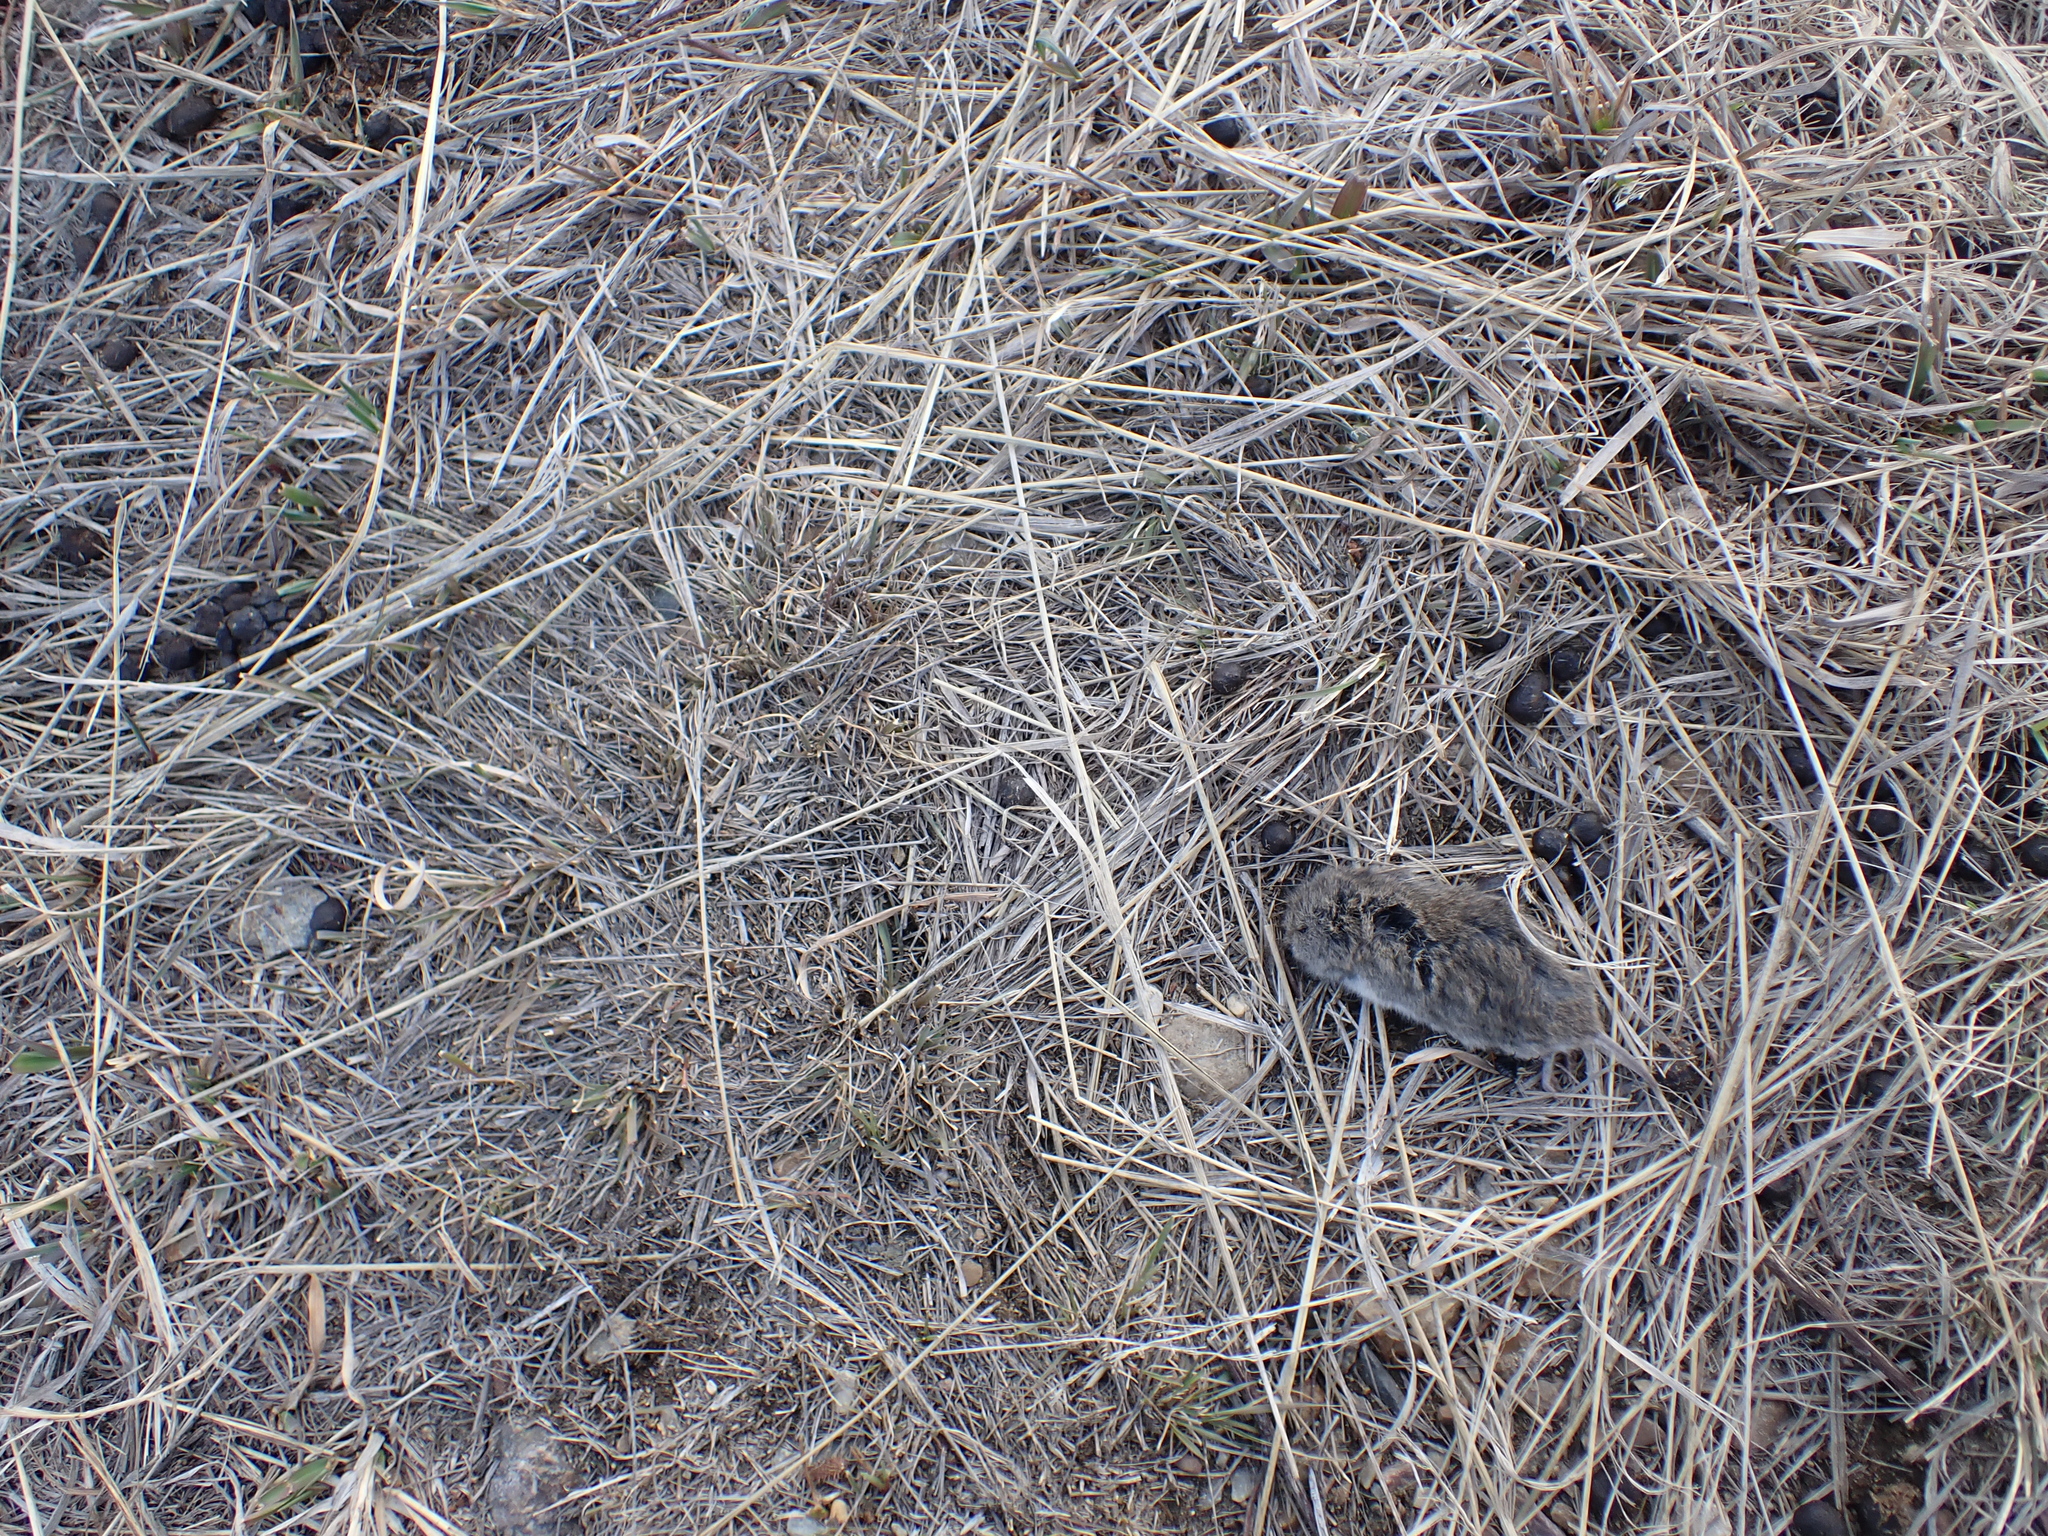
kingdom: Animalia
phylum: Chordata
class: Mammalia
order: Rodentia
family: Cricetidae
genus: Microtus
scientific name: Microtus pennsylvanicus
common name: Meadow vole
